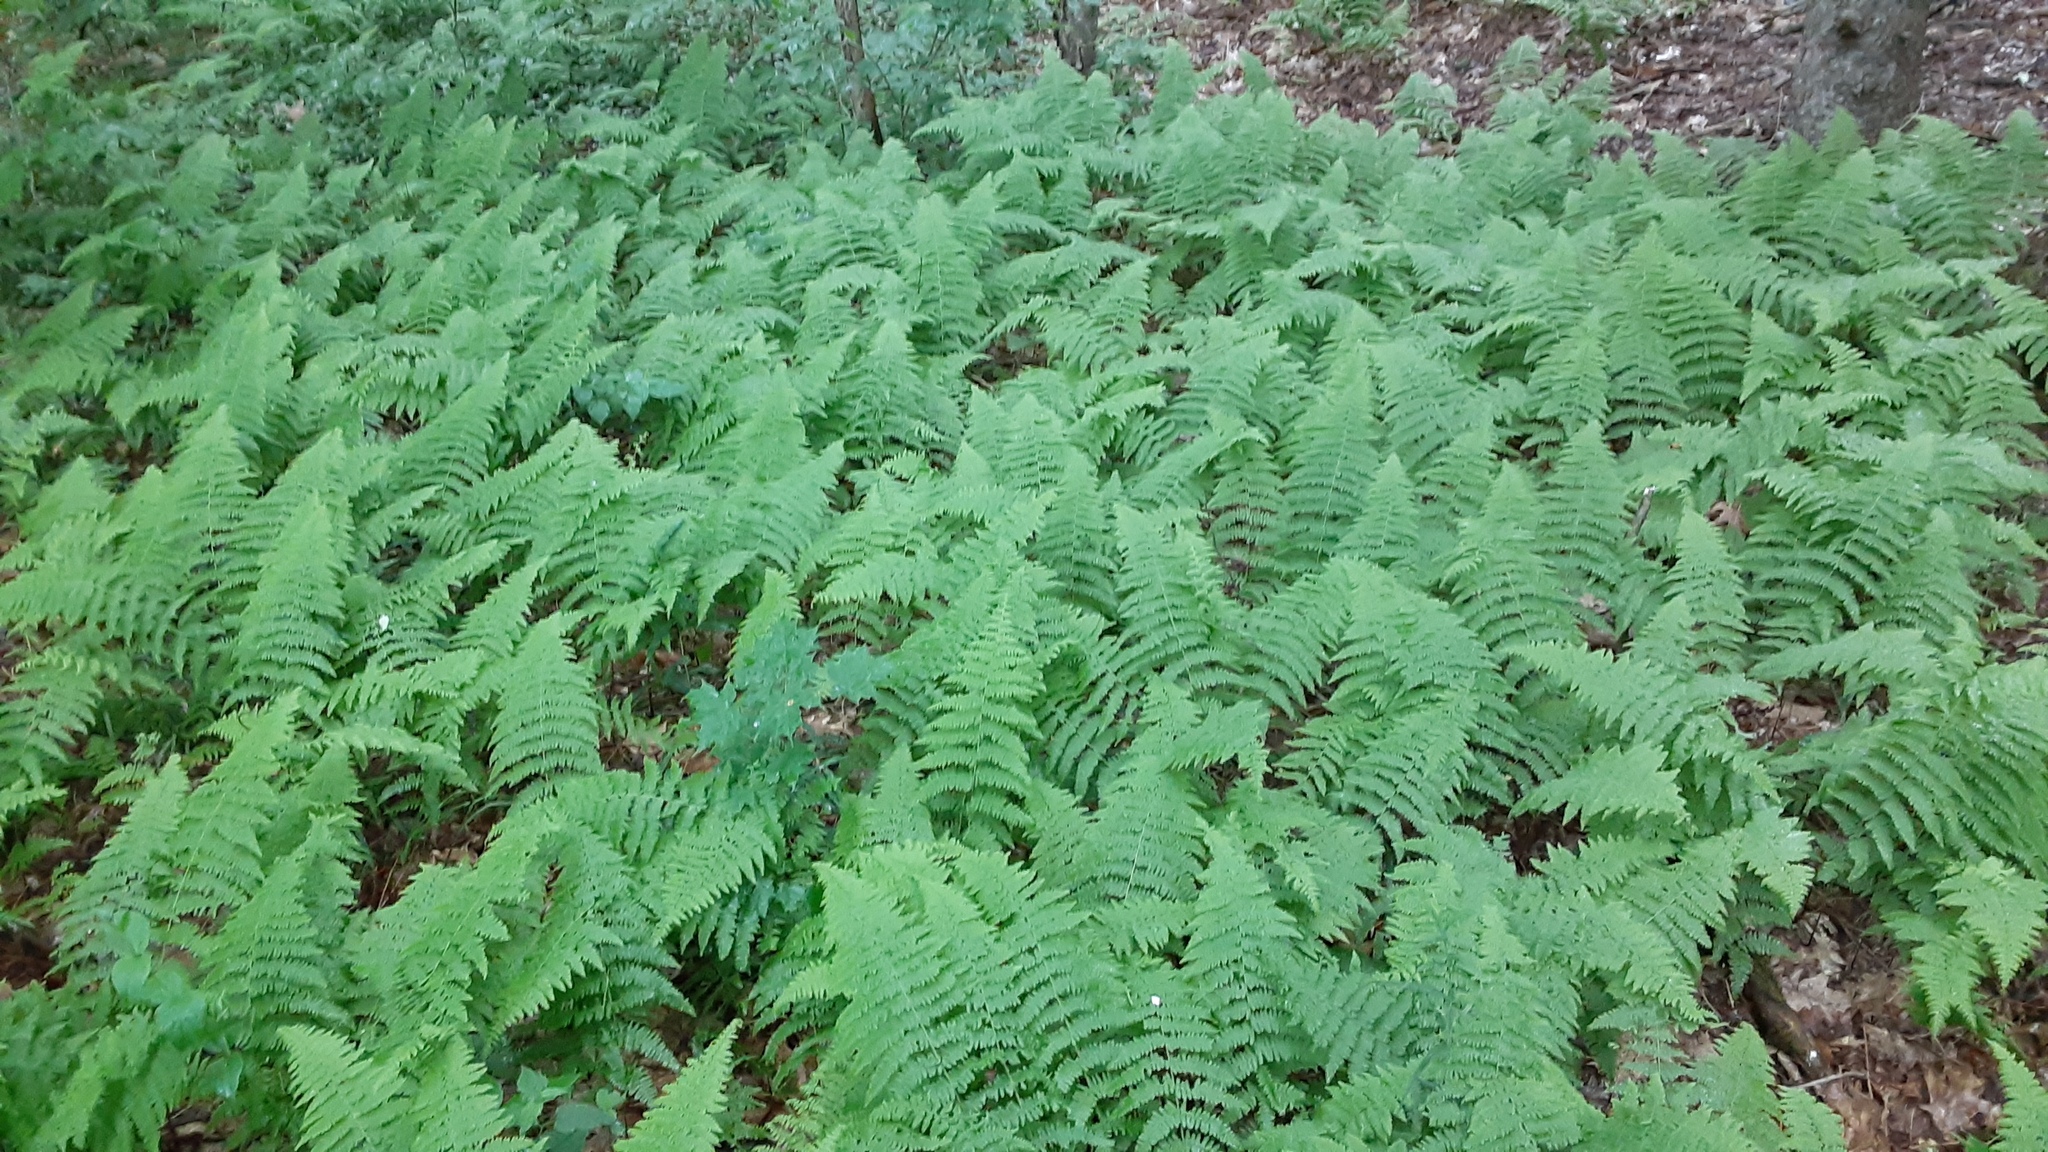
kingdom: Plantae
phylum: Tracheophyta
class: Polypodiopsida
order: Polypodiales
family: Dennstaedtiaceae
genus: Sitobolium
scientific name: Sitobolium punctilobum
